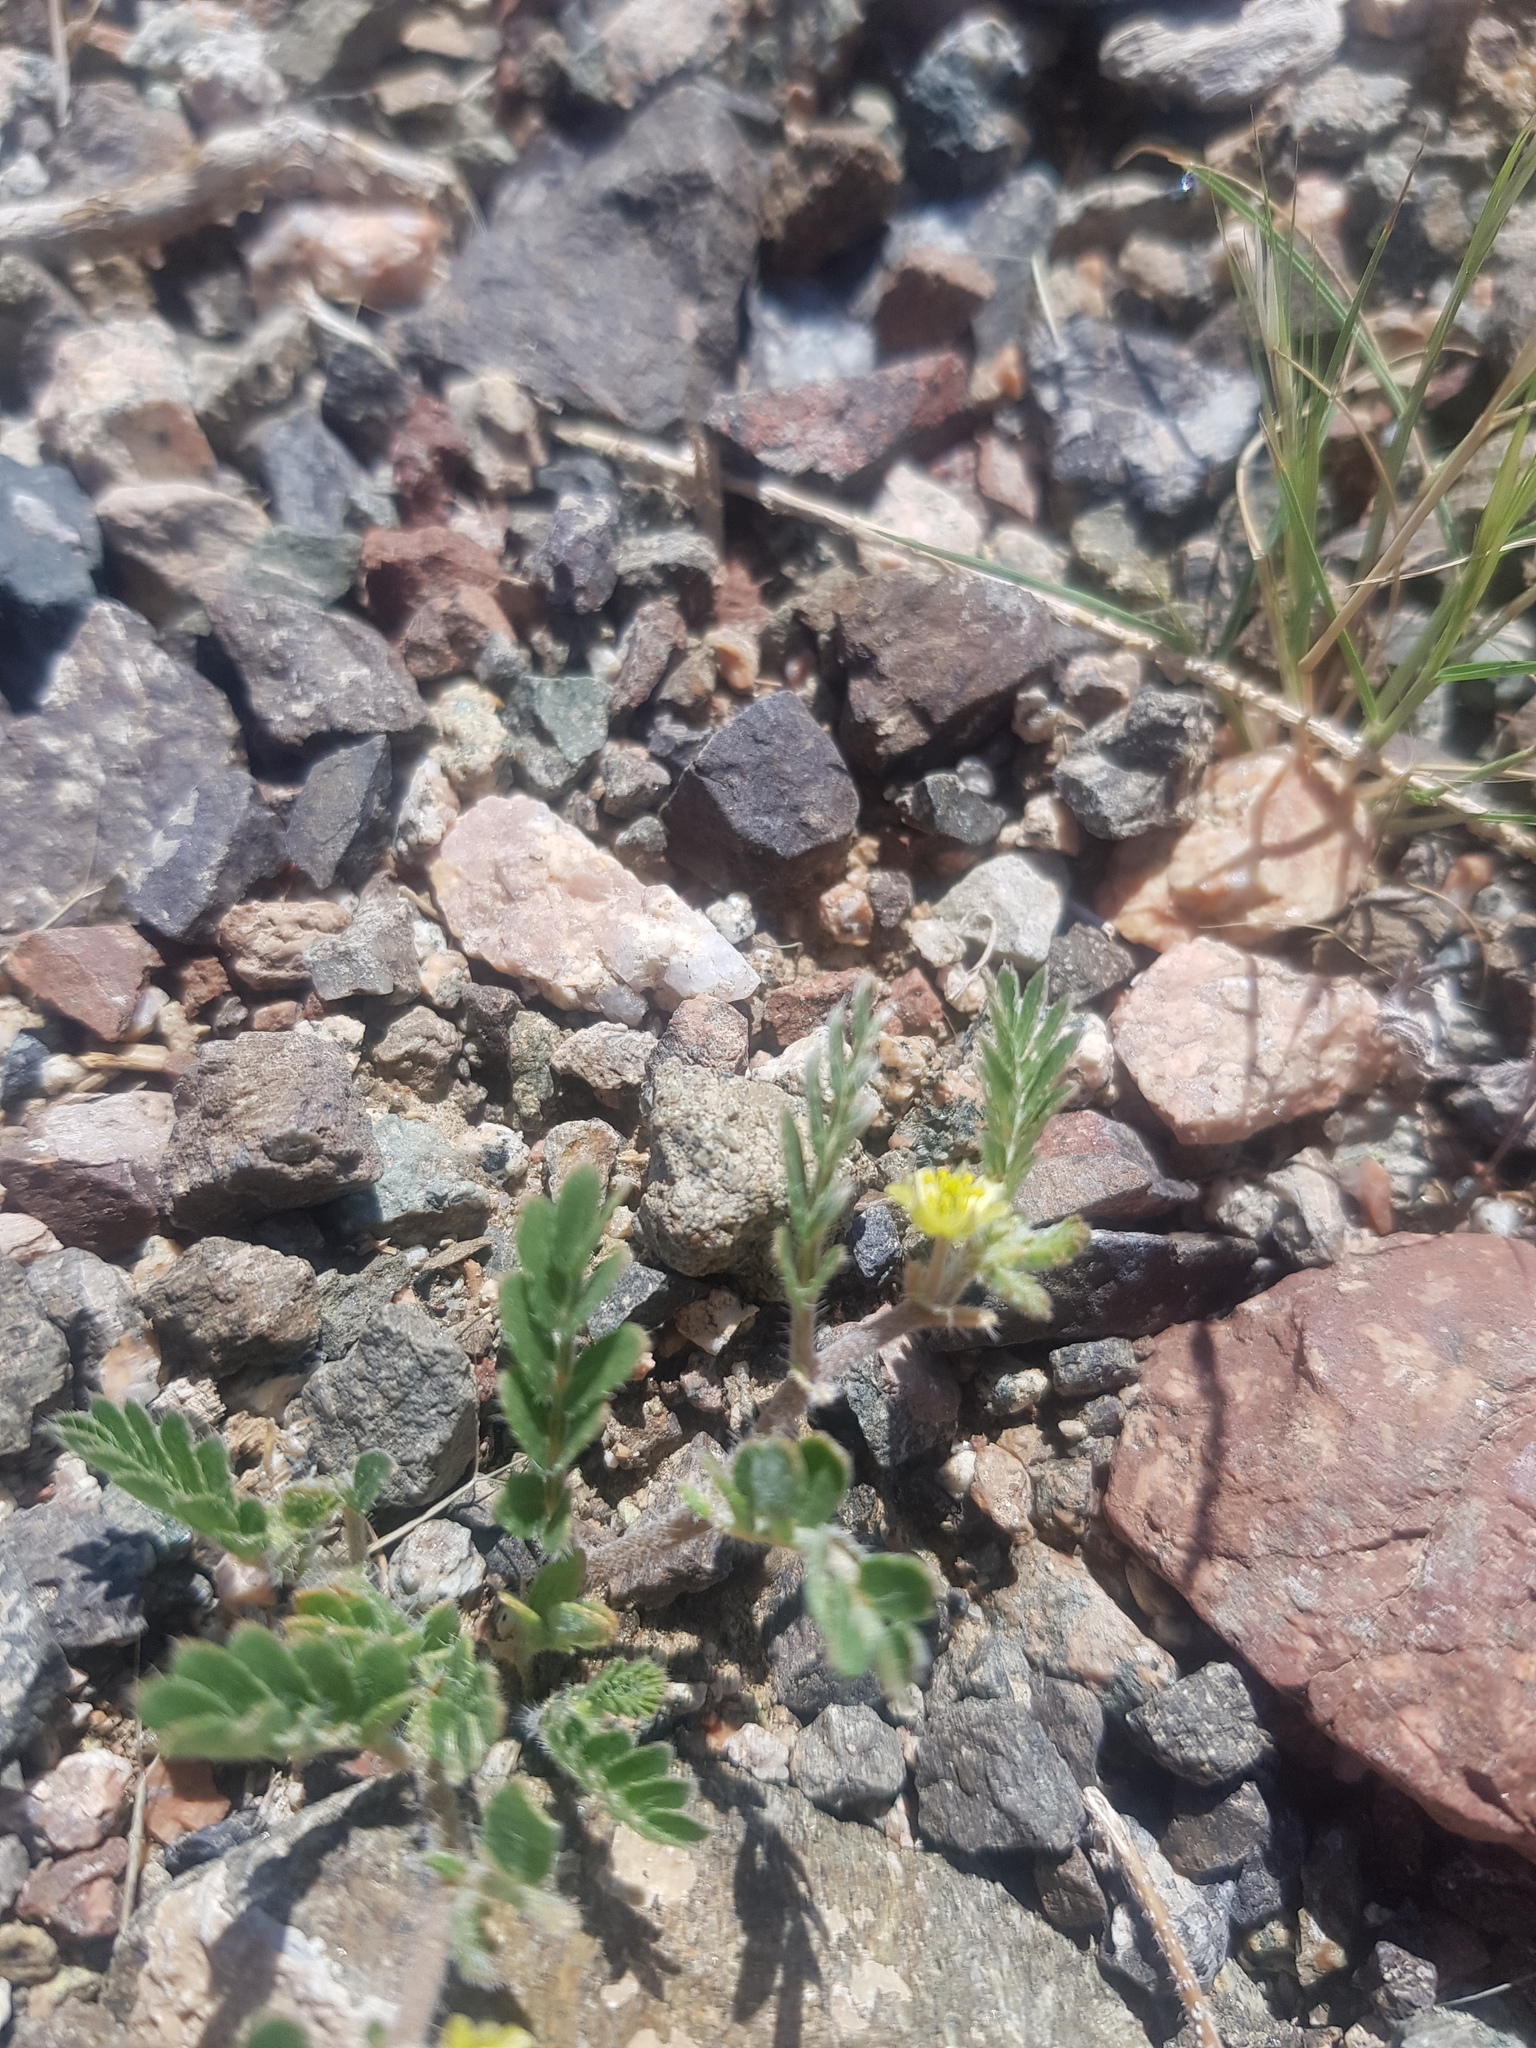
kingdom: Plantae
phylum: Tracheophyta
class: Magnoliopsida
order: Zygophyllales
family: Zygophyllaceae
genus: Tribulus
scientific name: Tribulus terrestris
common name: Puncturevine
